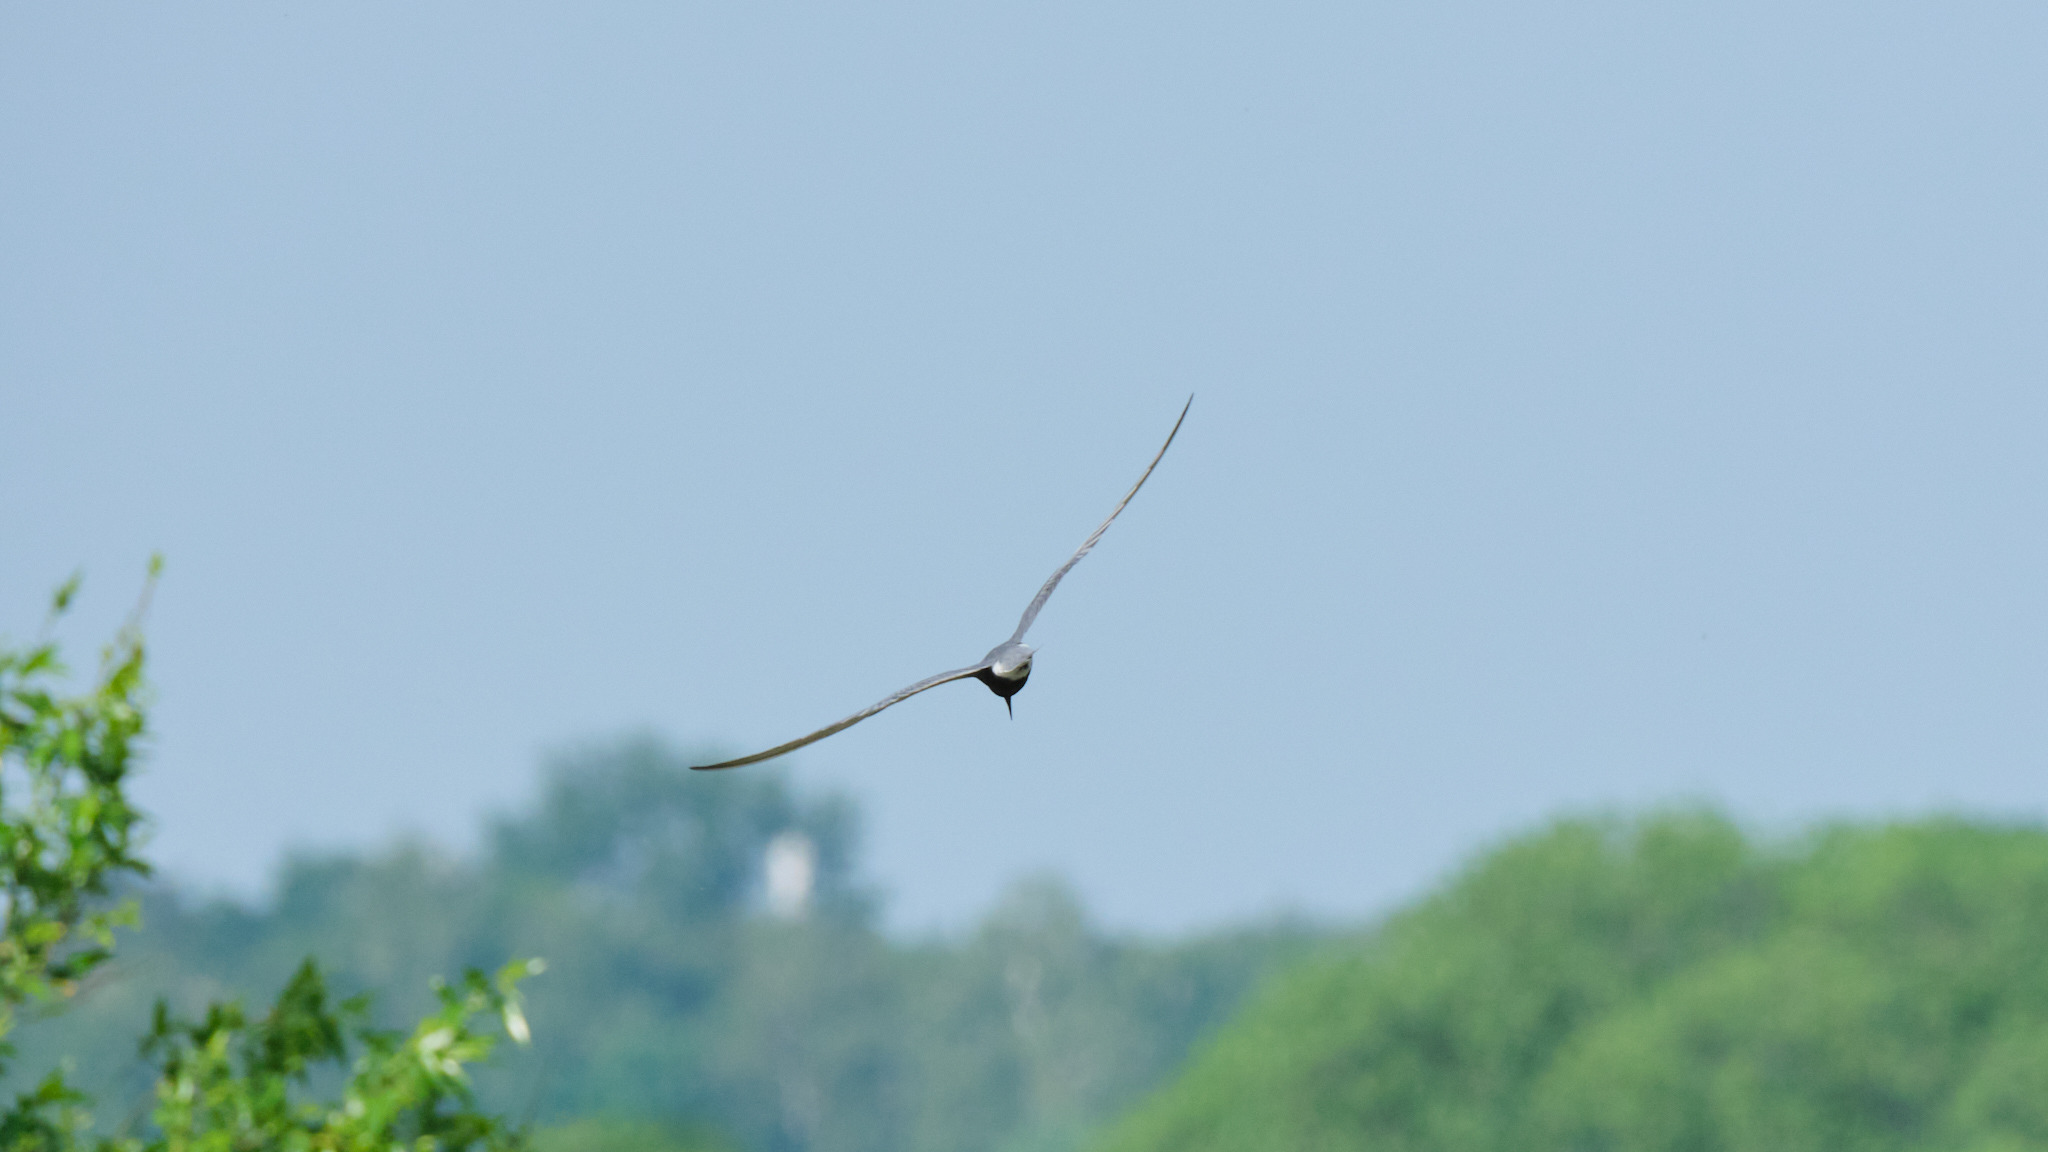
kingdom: Animalia
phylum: Chordata
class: Aves
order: Charadriiformes
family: Laridae
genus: Chlidonias
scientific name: Chlidonias niger
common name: Black tern
